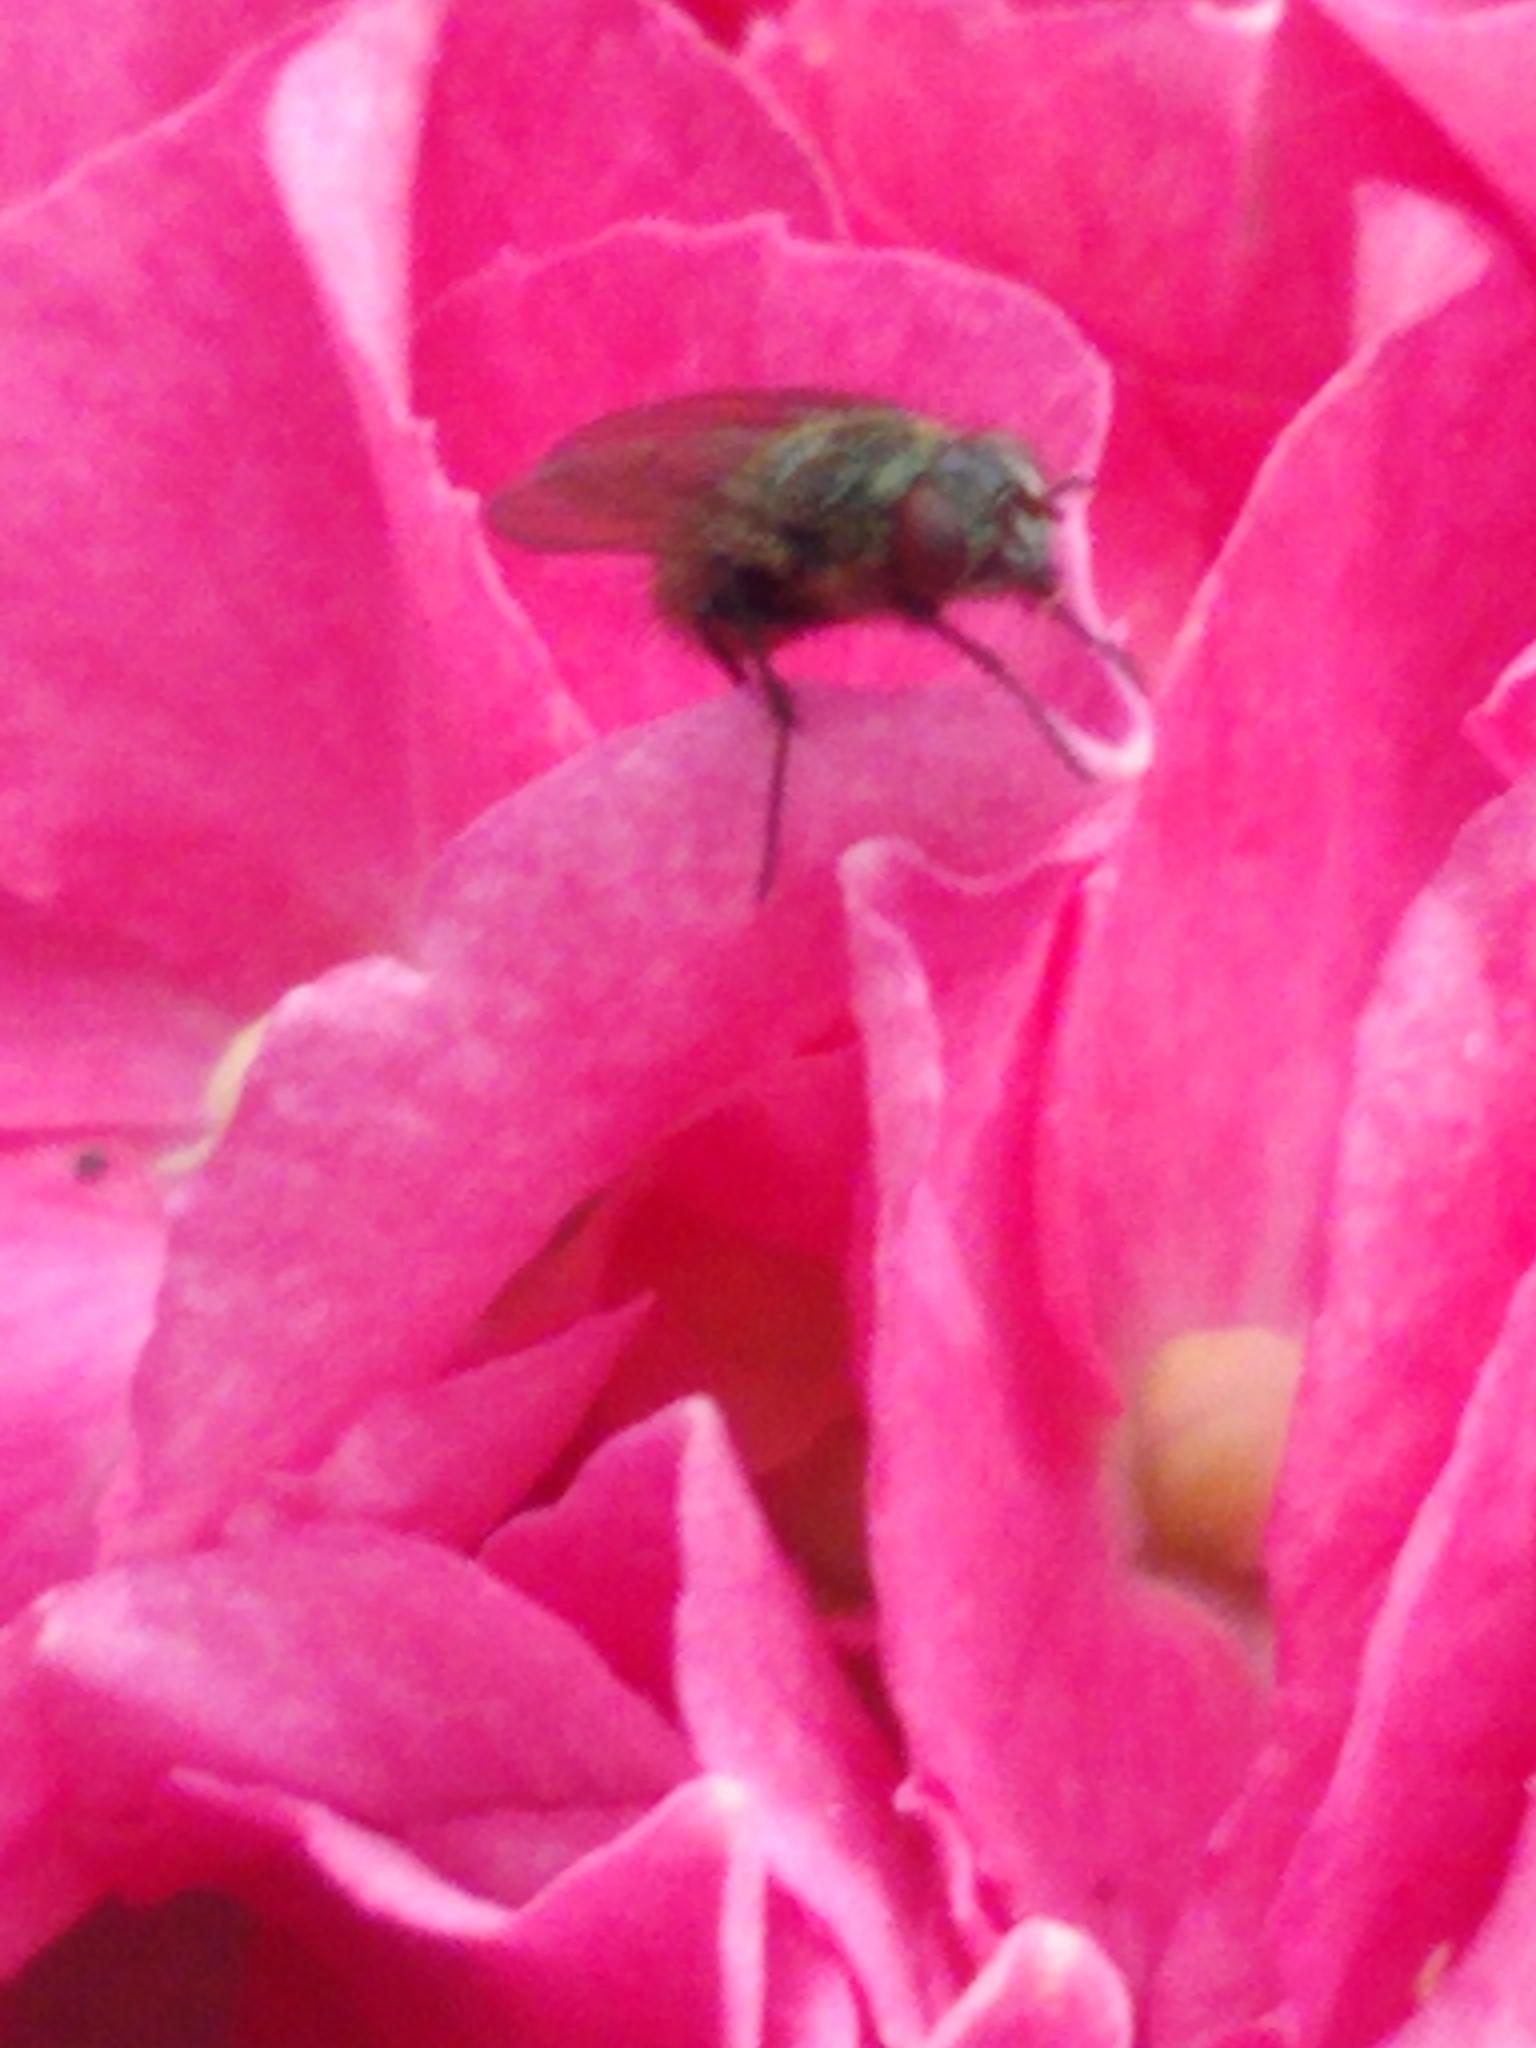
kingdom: Animalia
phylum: Arthropoda
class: Insecta
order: Diptera
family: Polleniidae
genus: Pollenia
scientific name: Pollenia
